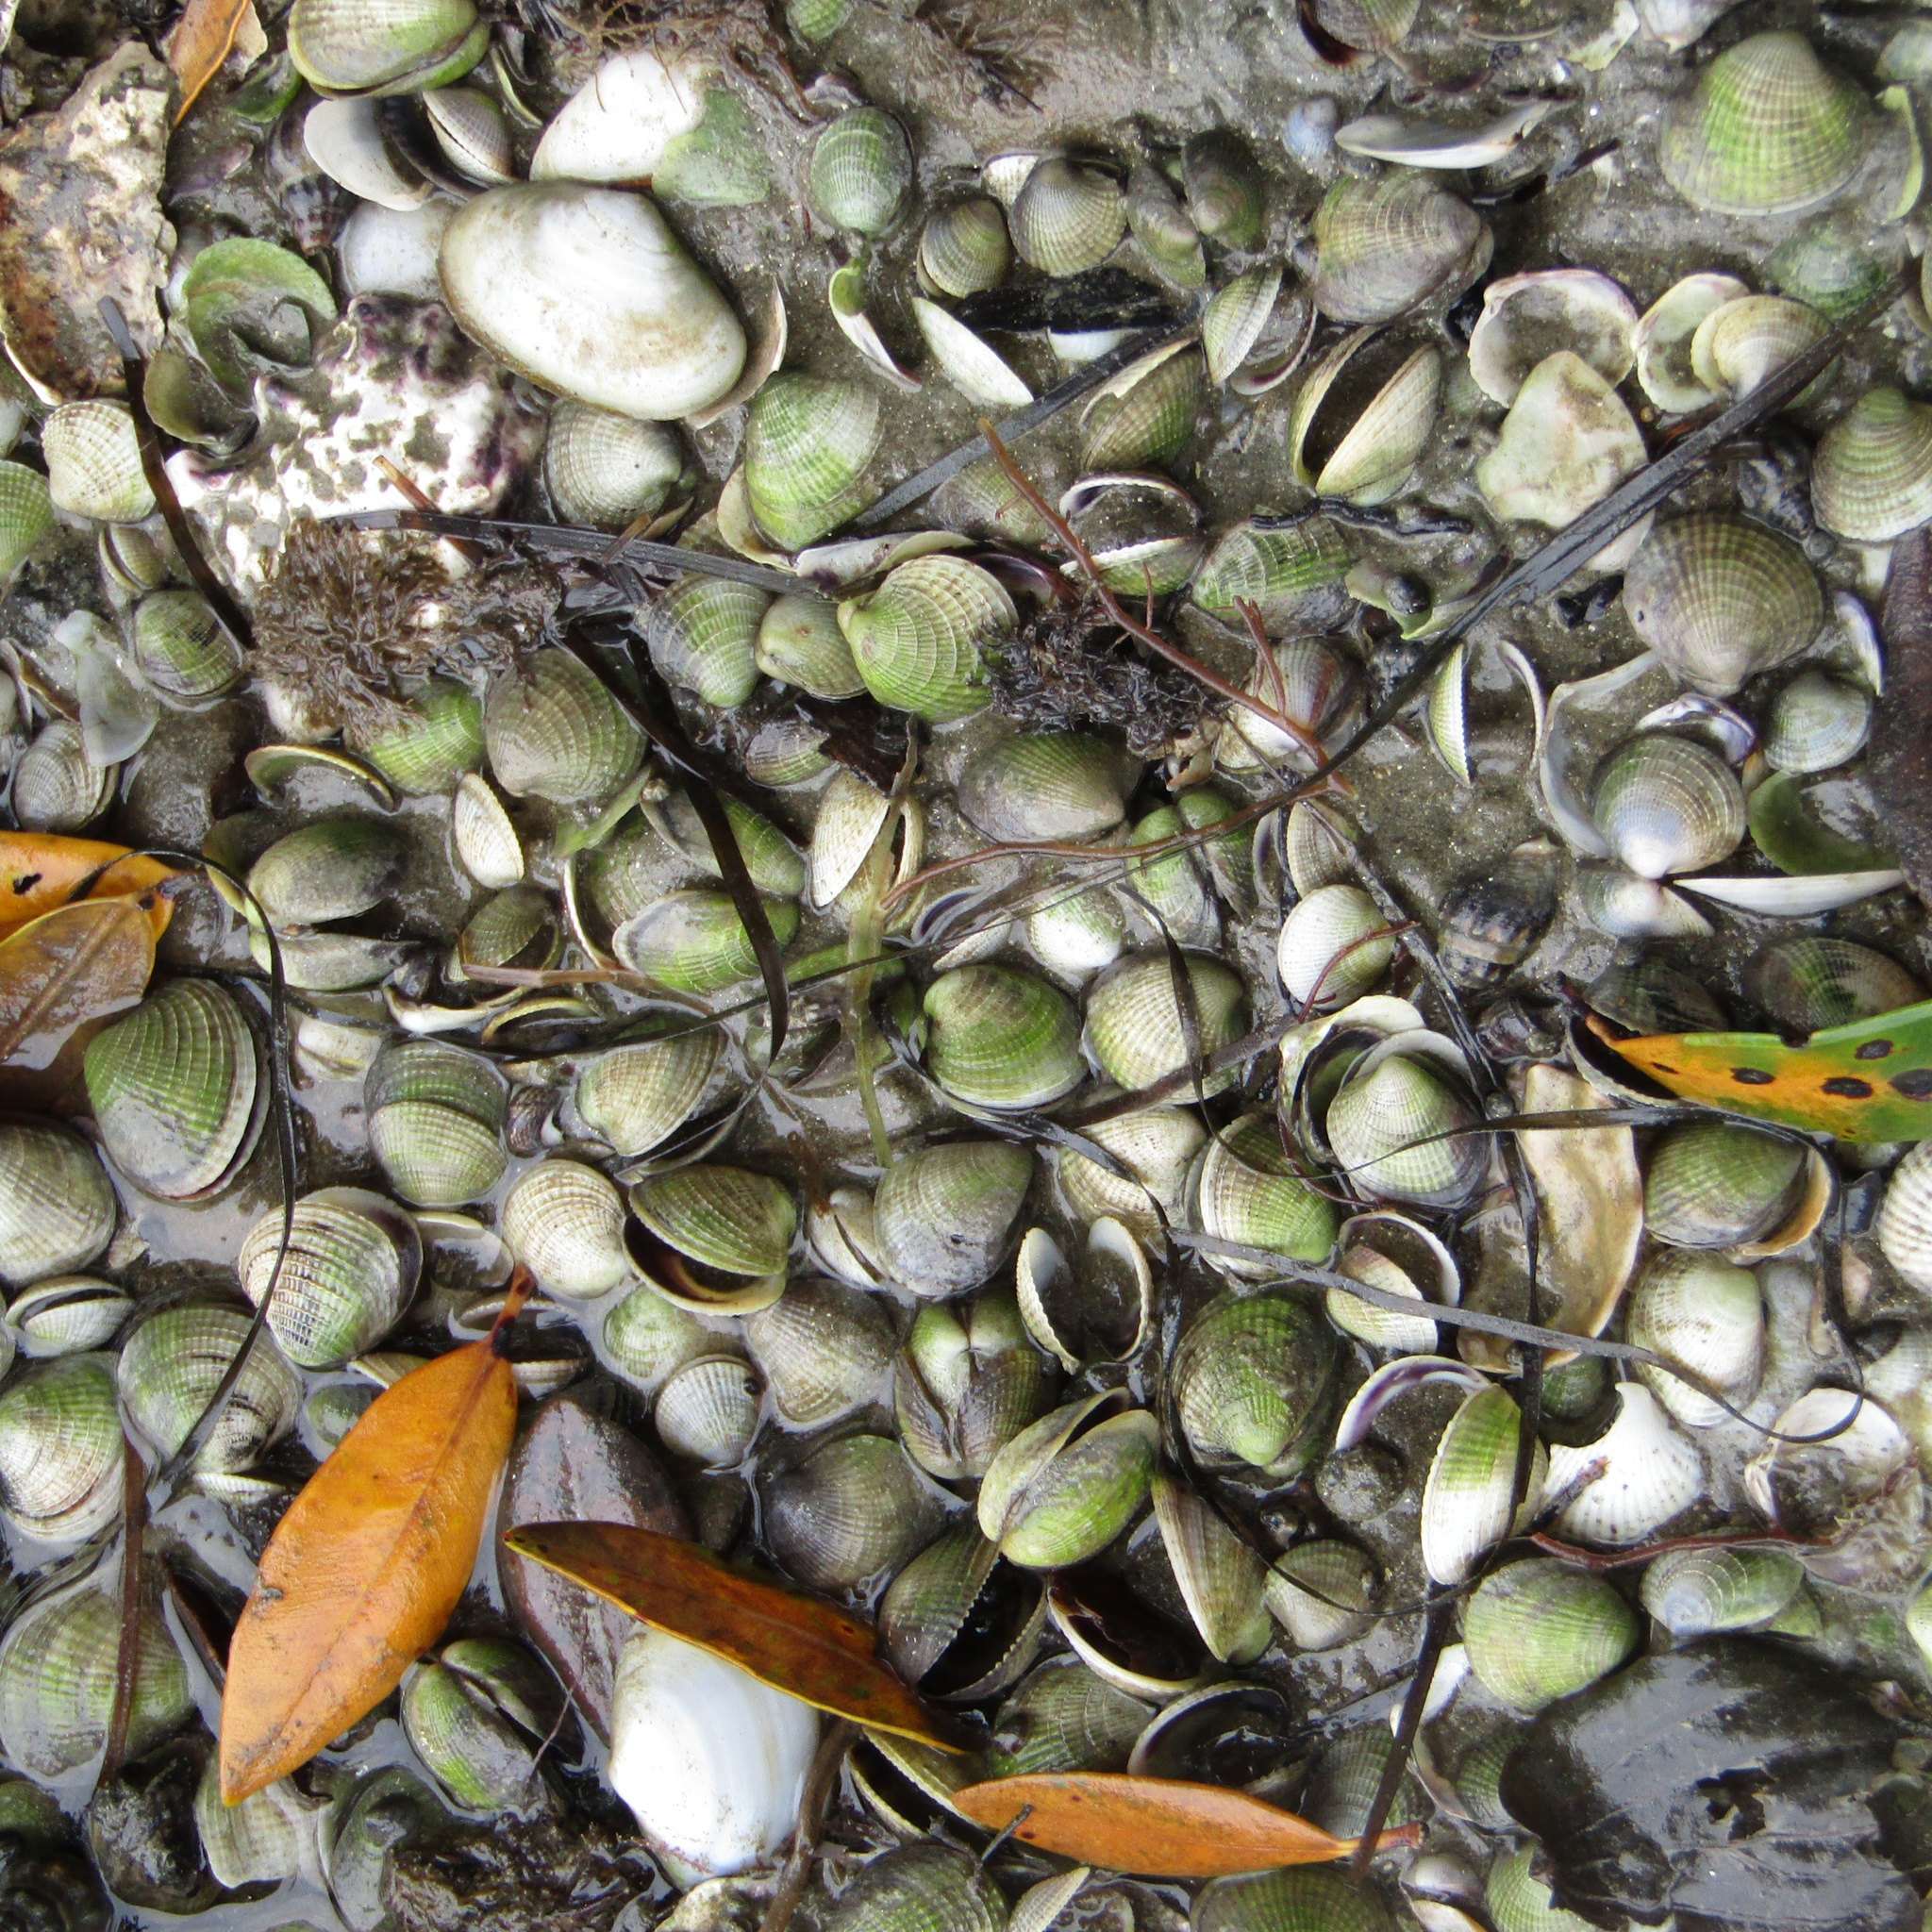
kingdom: Animalia
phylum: Mollusca
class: Bivalvia
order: Venerida
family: Veneridae
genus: Austrovenus
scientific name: Austrovenus stutchburyi
